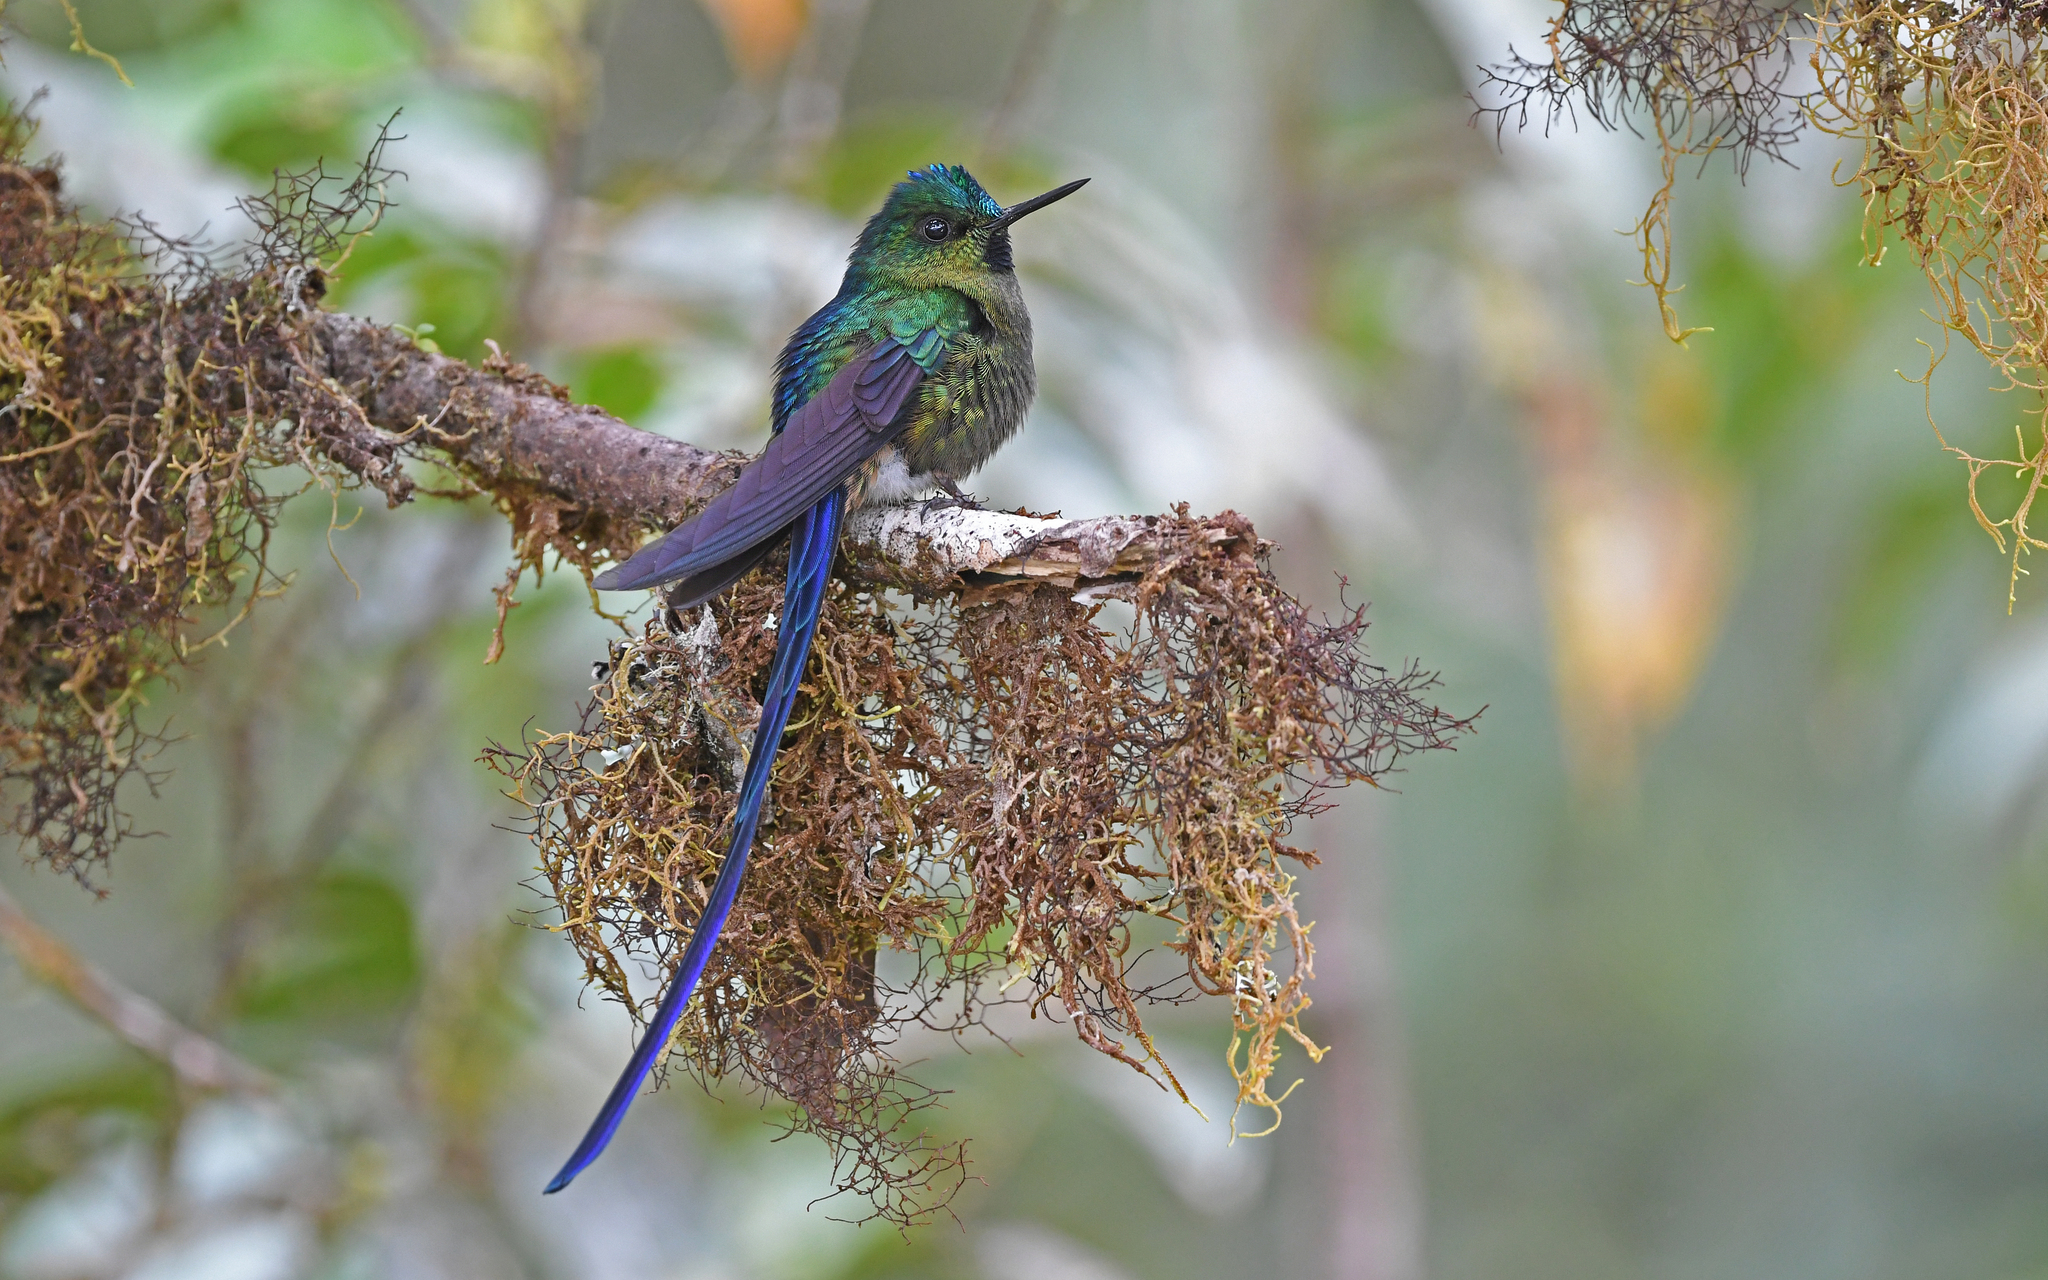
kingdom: Animalia
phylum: Chordata
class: Aves
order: Apodiformes
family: Trochilidae
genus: Aglaiocercus
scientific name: Aglaiocercus coelestis
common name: Violet-tailed sylph
